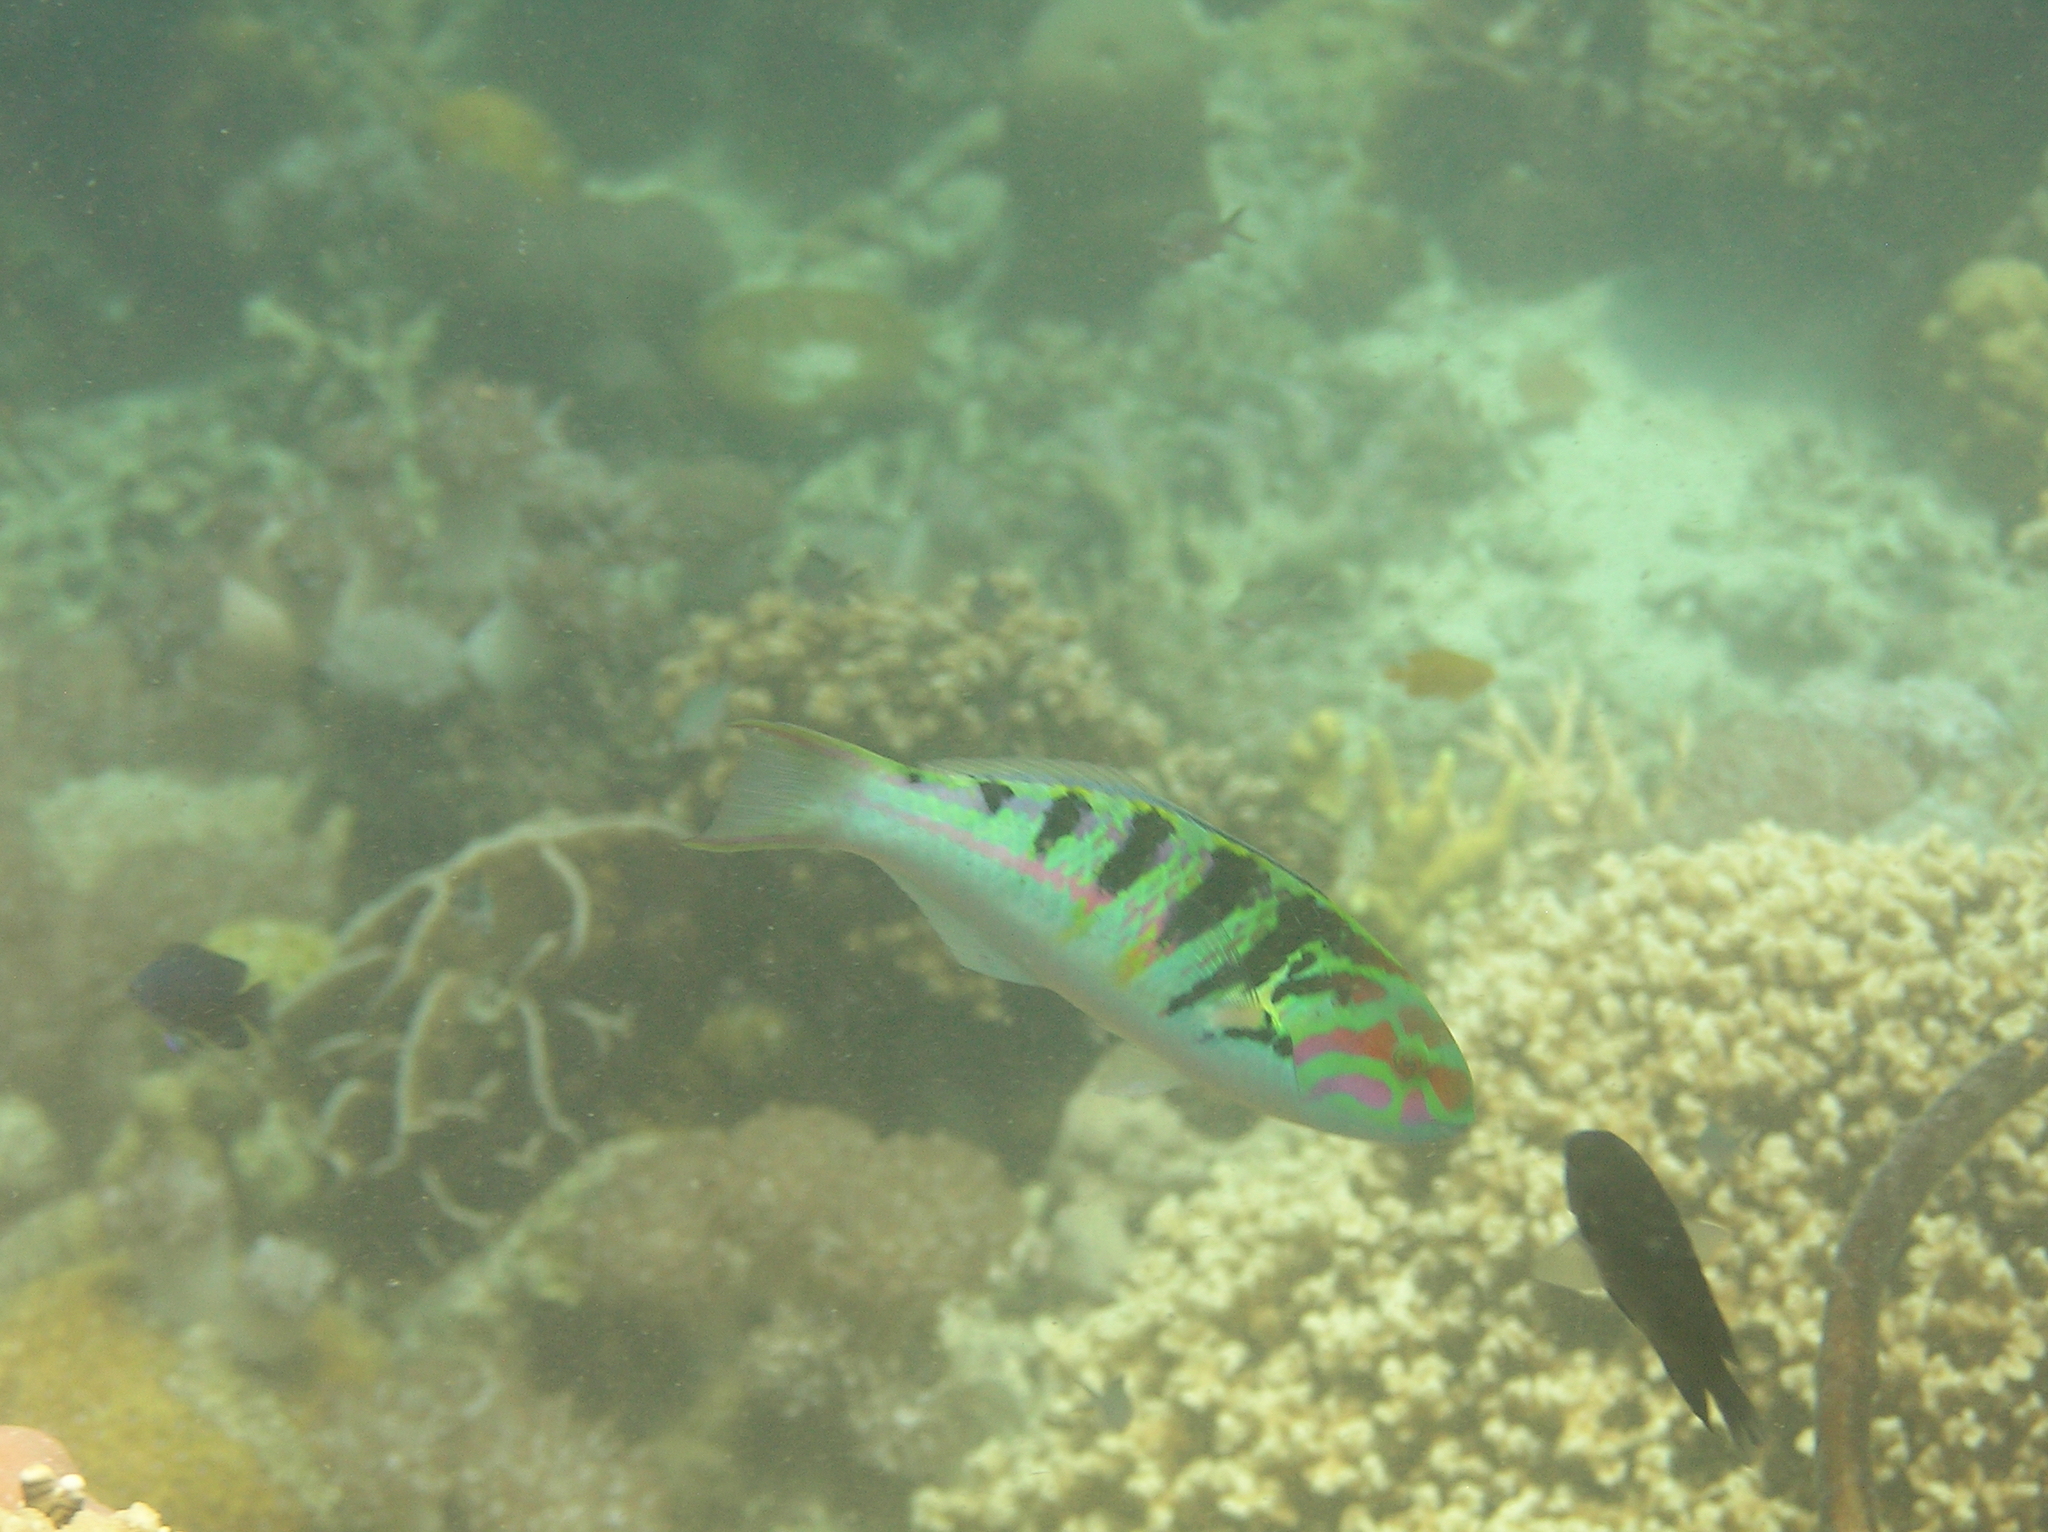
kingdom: Animalia
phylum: Chordata
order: Perciformes
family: Labridae
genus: Thalassoma
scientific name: Thalassoma hardwicke
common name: Sixbar wrasse
